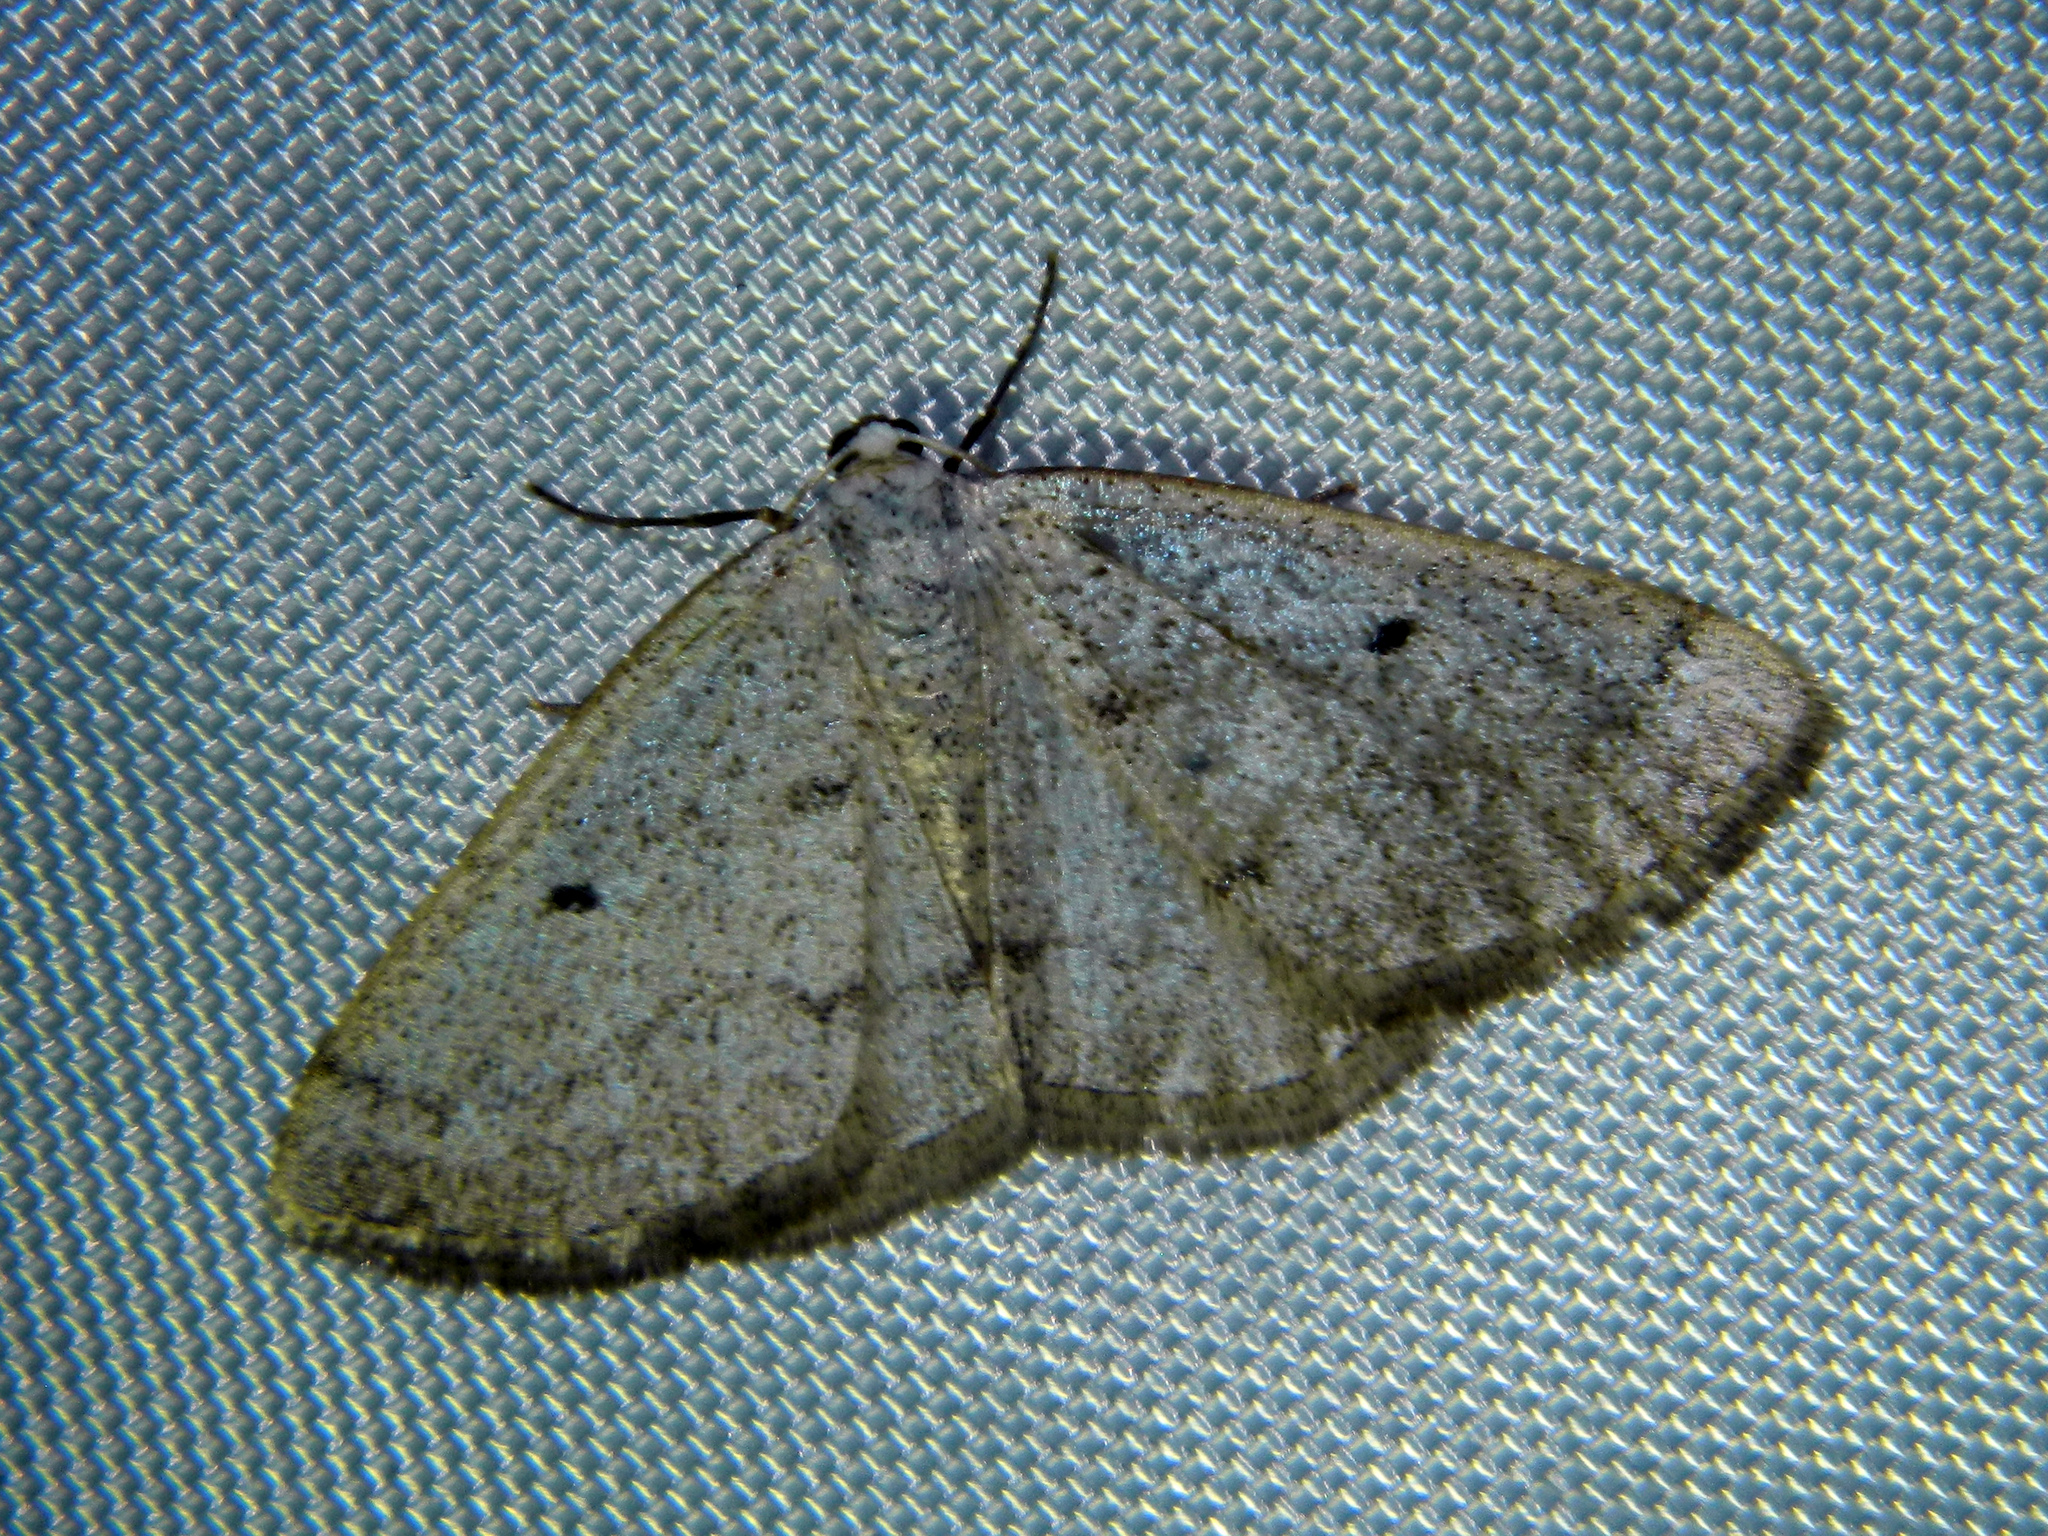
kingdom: Animalia
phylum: Arthropoda
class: Insecta
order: Lepidoptera
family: Geometridae
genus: Lomographa
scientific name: Lomographa glomeraria
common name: Gray spring moth
